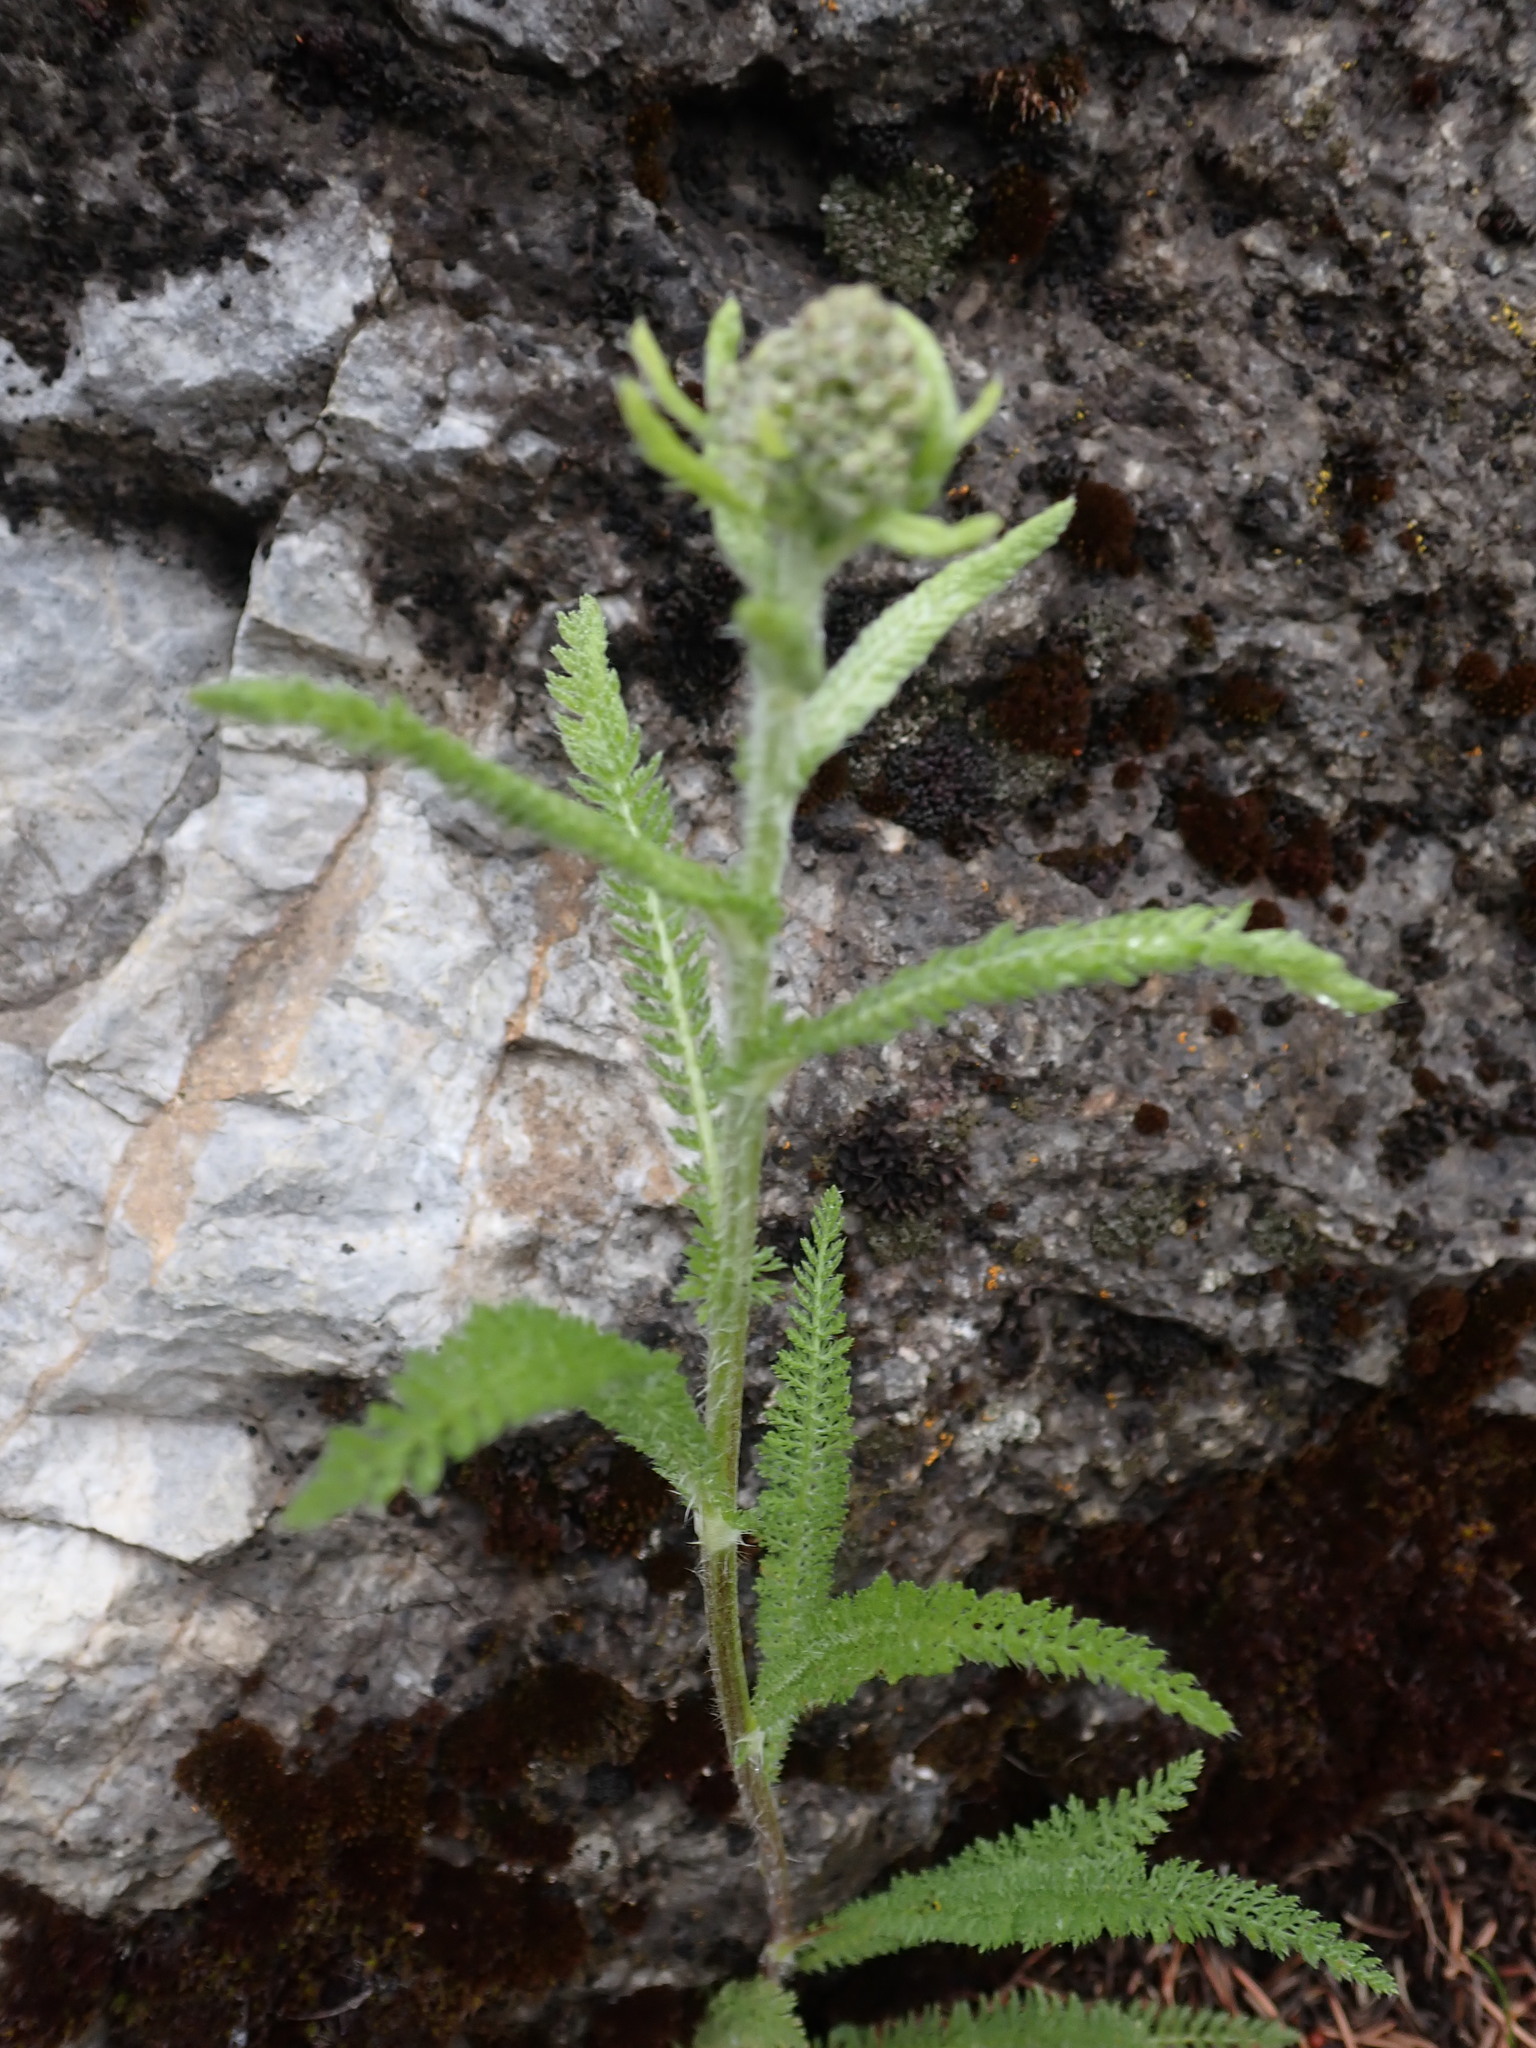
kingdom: Plantae
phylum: Tracheophyta
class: Magnoliopsida
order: Asterales
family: Asteraceae
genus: Achillea
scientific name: Achillea millefolium
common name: Yarrow
